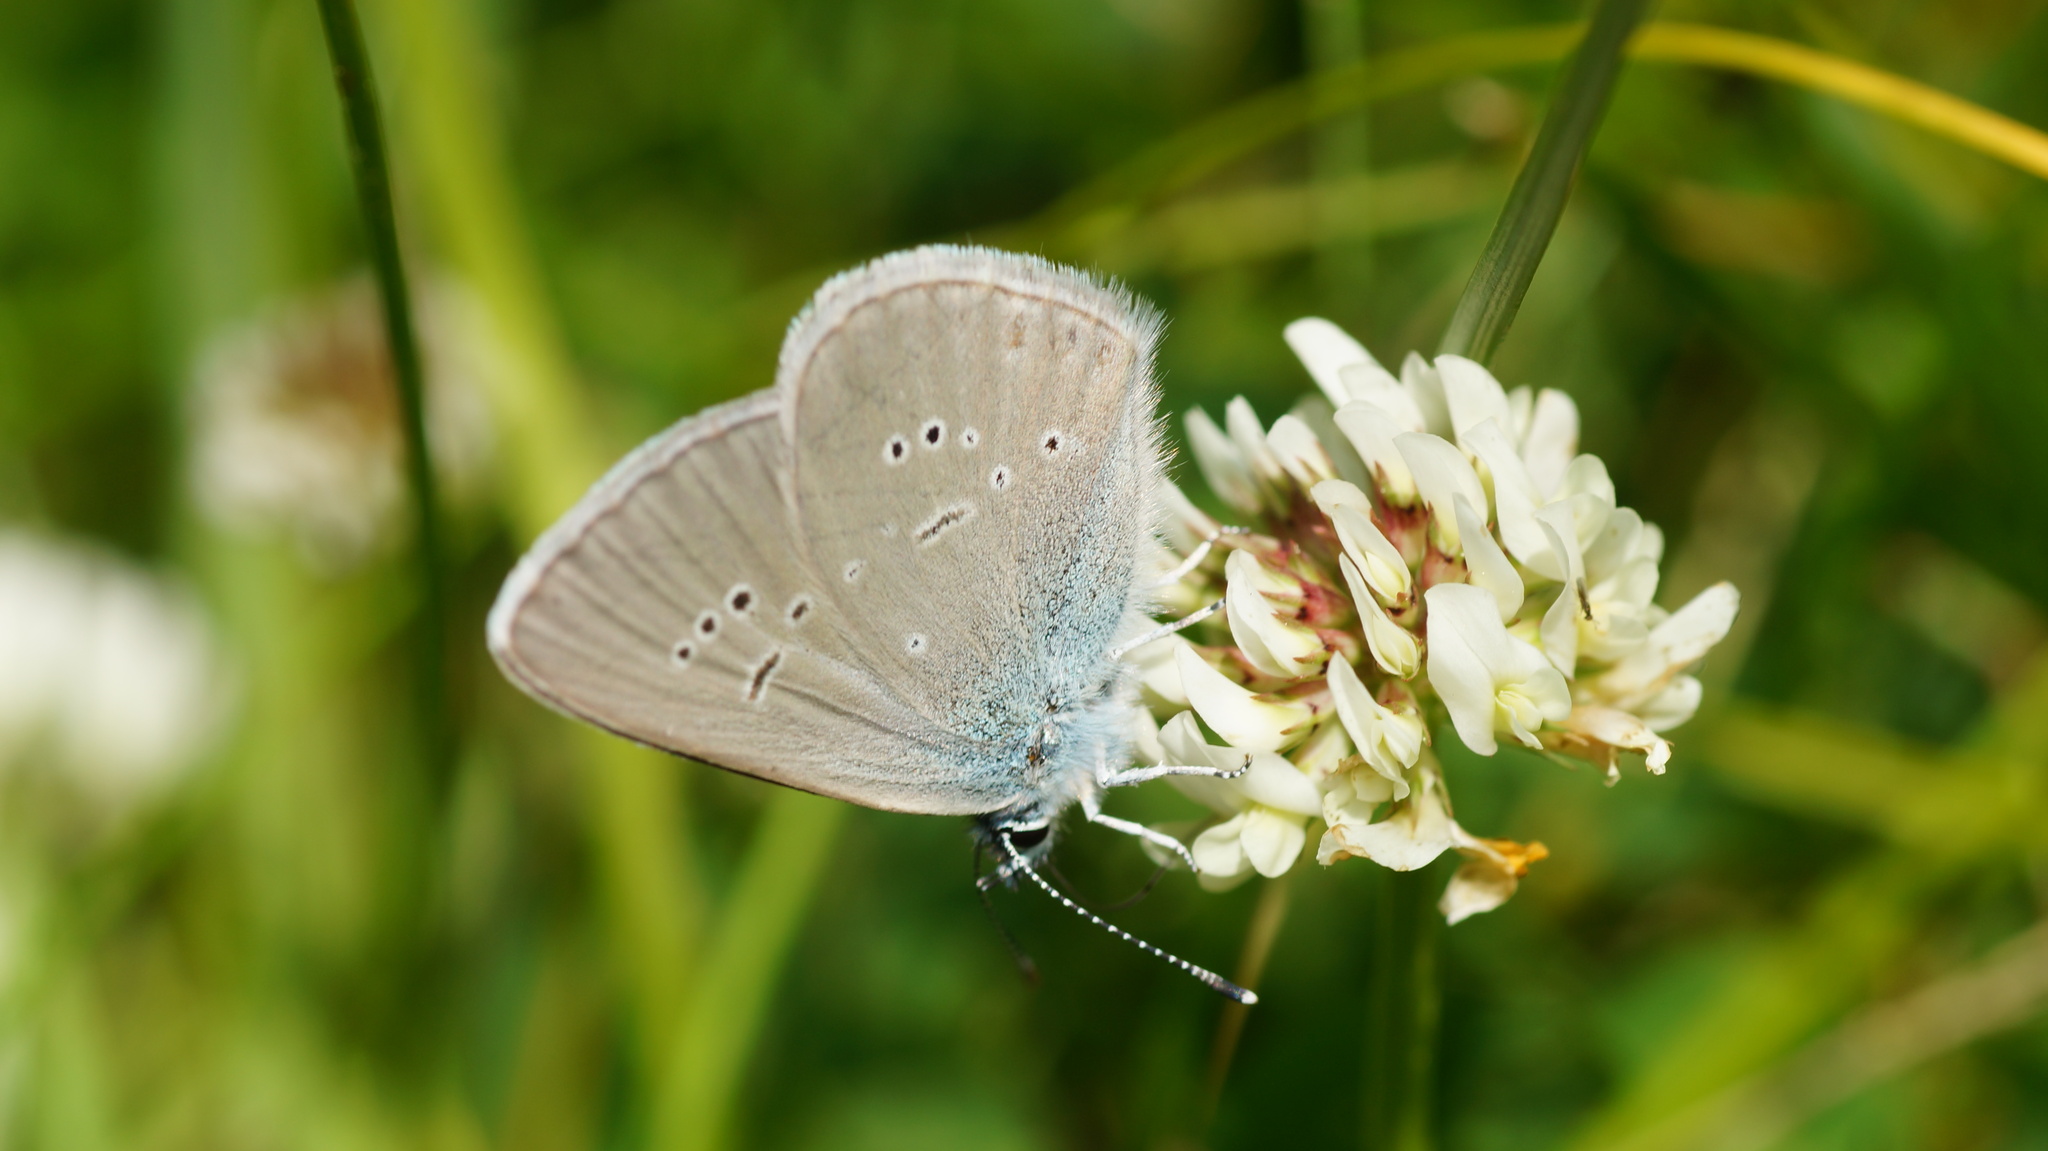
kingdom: Animalia
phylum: Arthropoda
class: Insecta
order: Lepidoptera
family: Lycaenidae
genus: Cyaniris
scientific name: Cyaniris semiargus
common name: Mazarine blue
